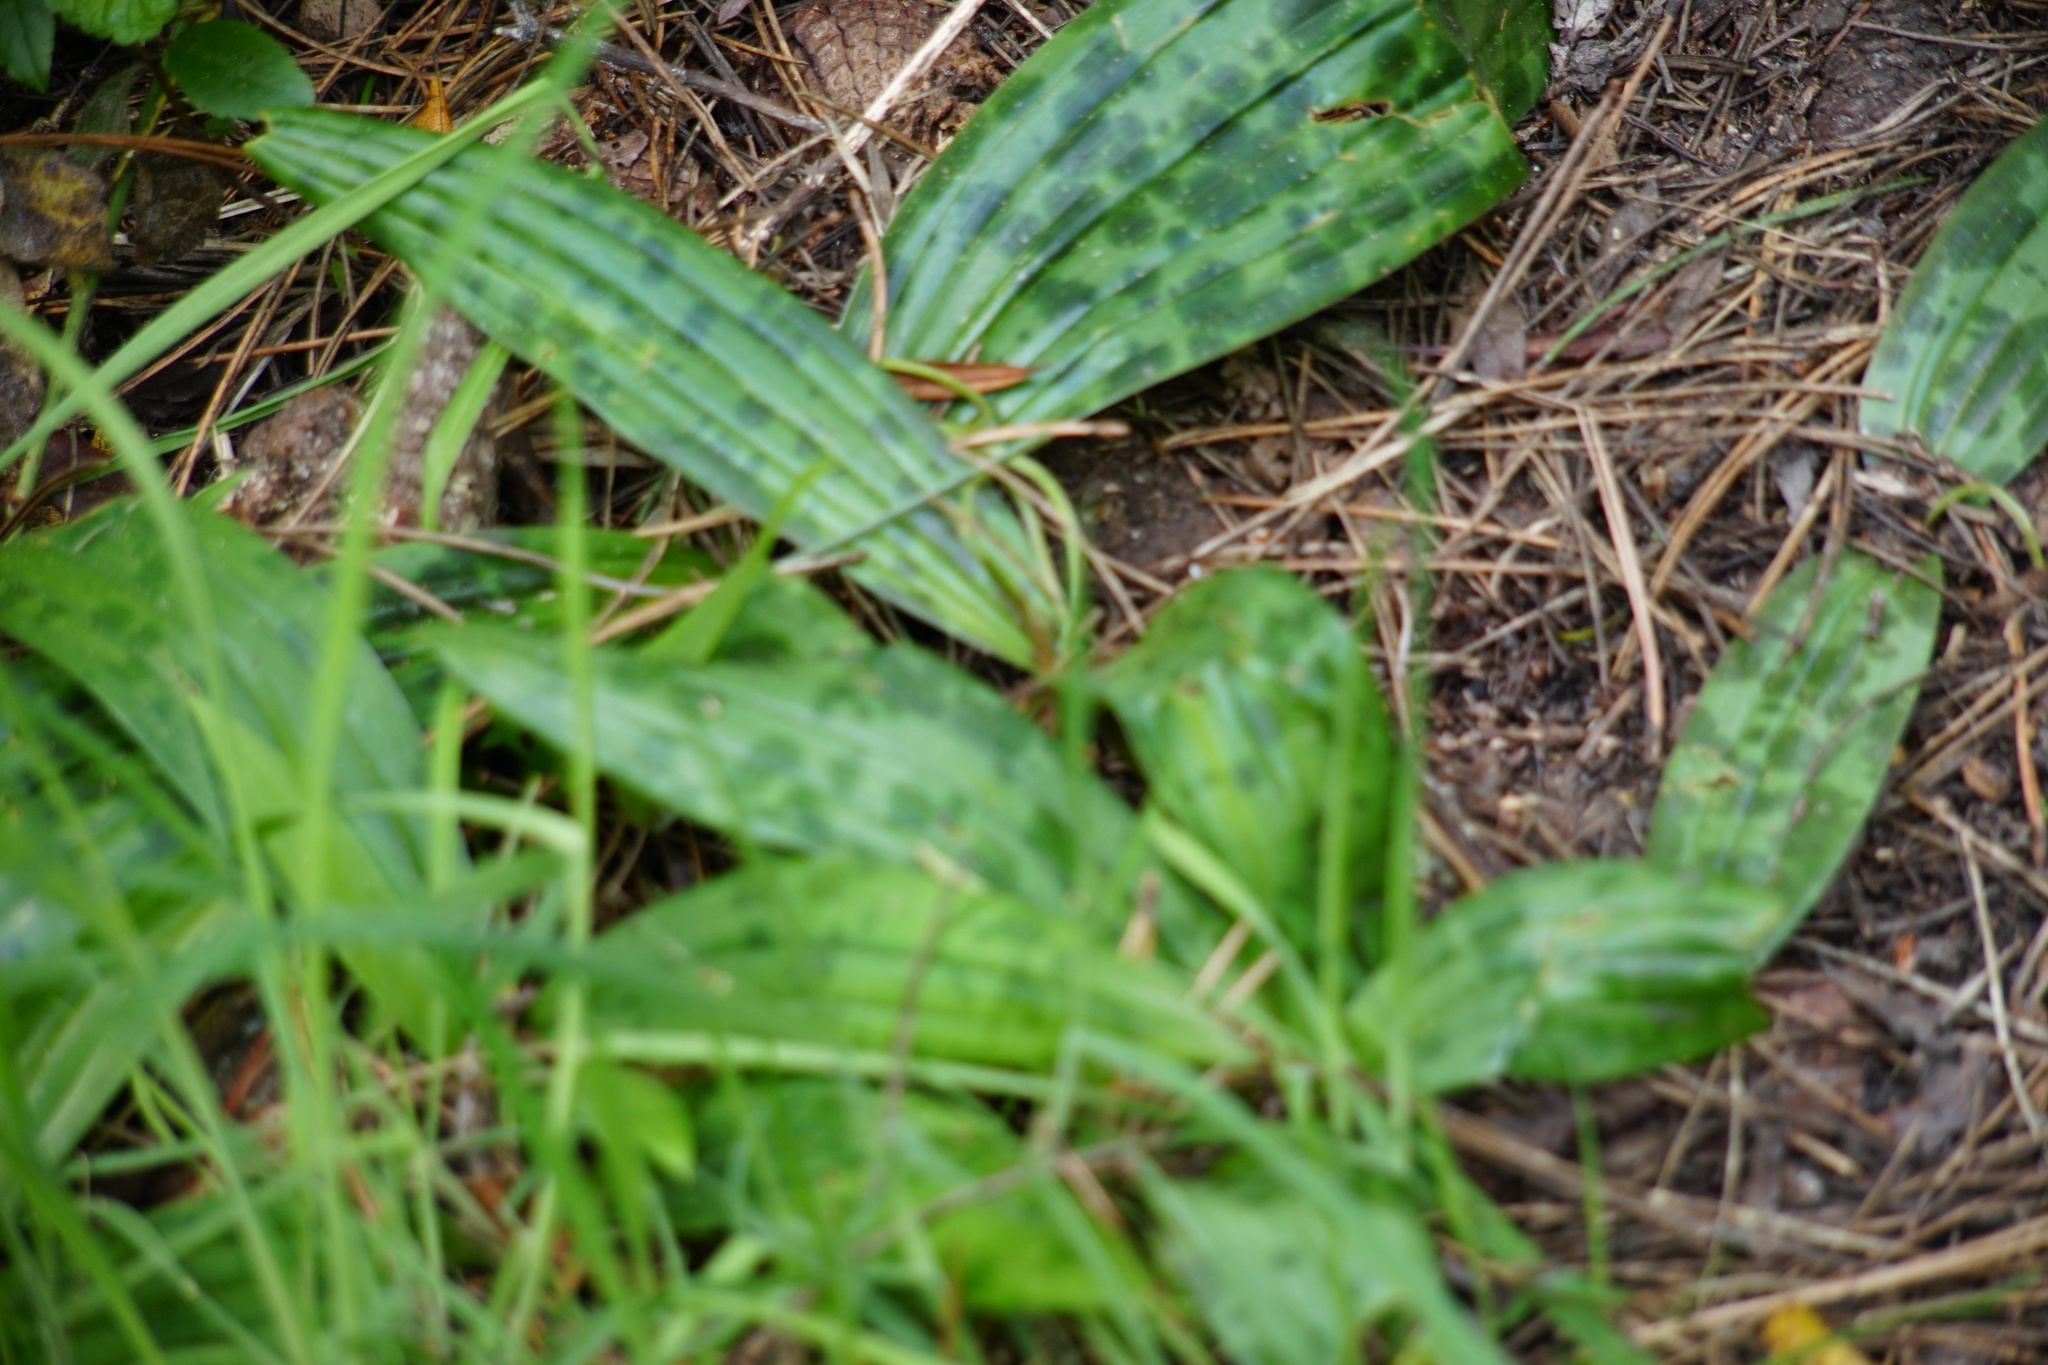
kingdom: Plantae
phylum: Tracheophyta
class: Liliopsida
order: Liliales
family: Liliaceae
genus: Scoliopus
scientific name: Scoliopus bigelovii
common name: Foetid adder's-tongue
